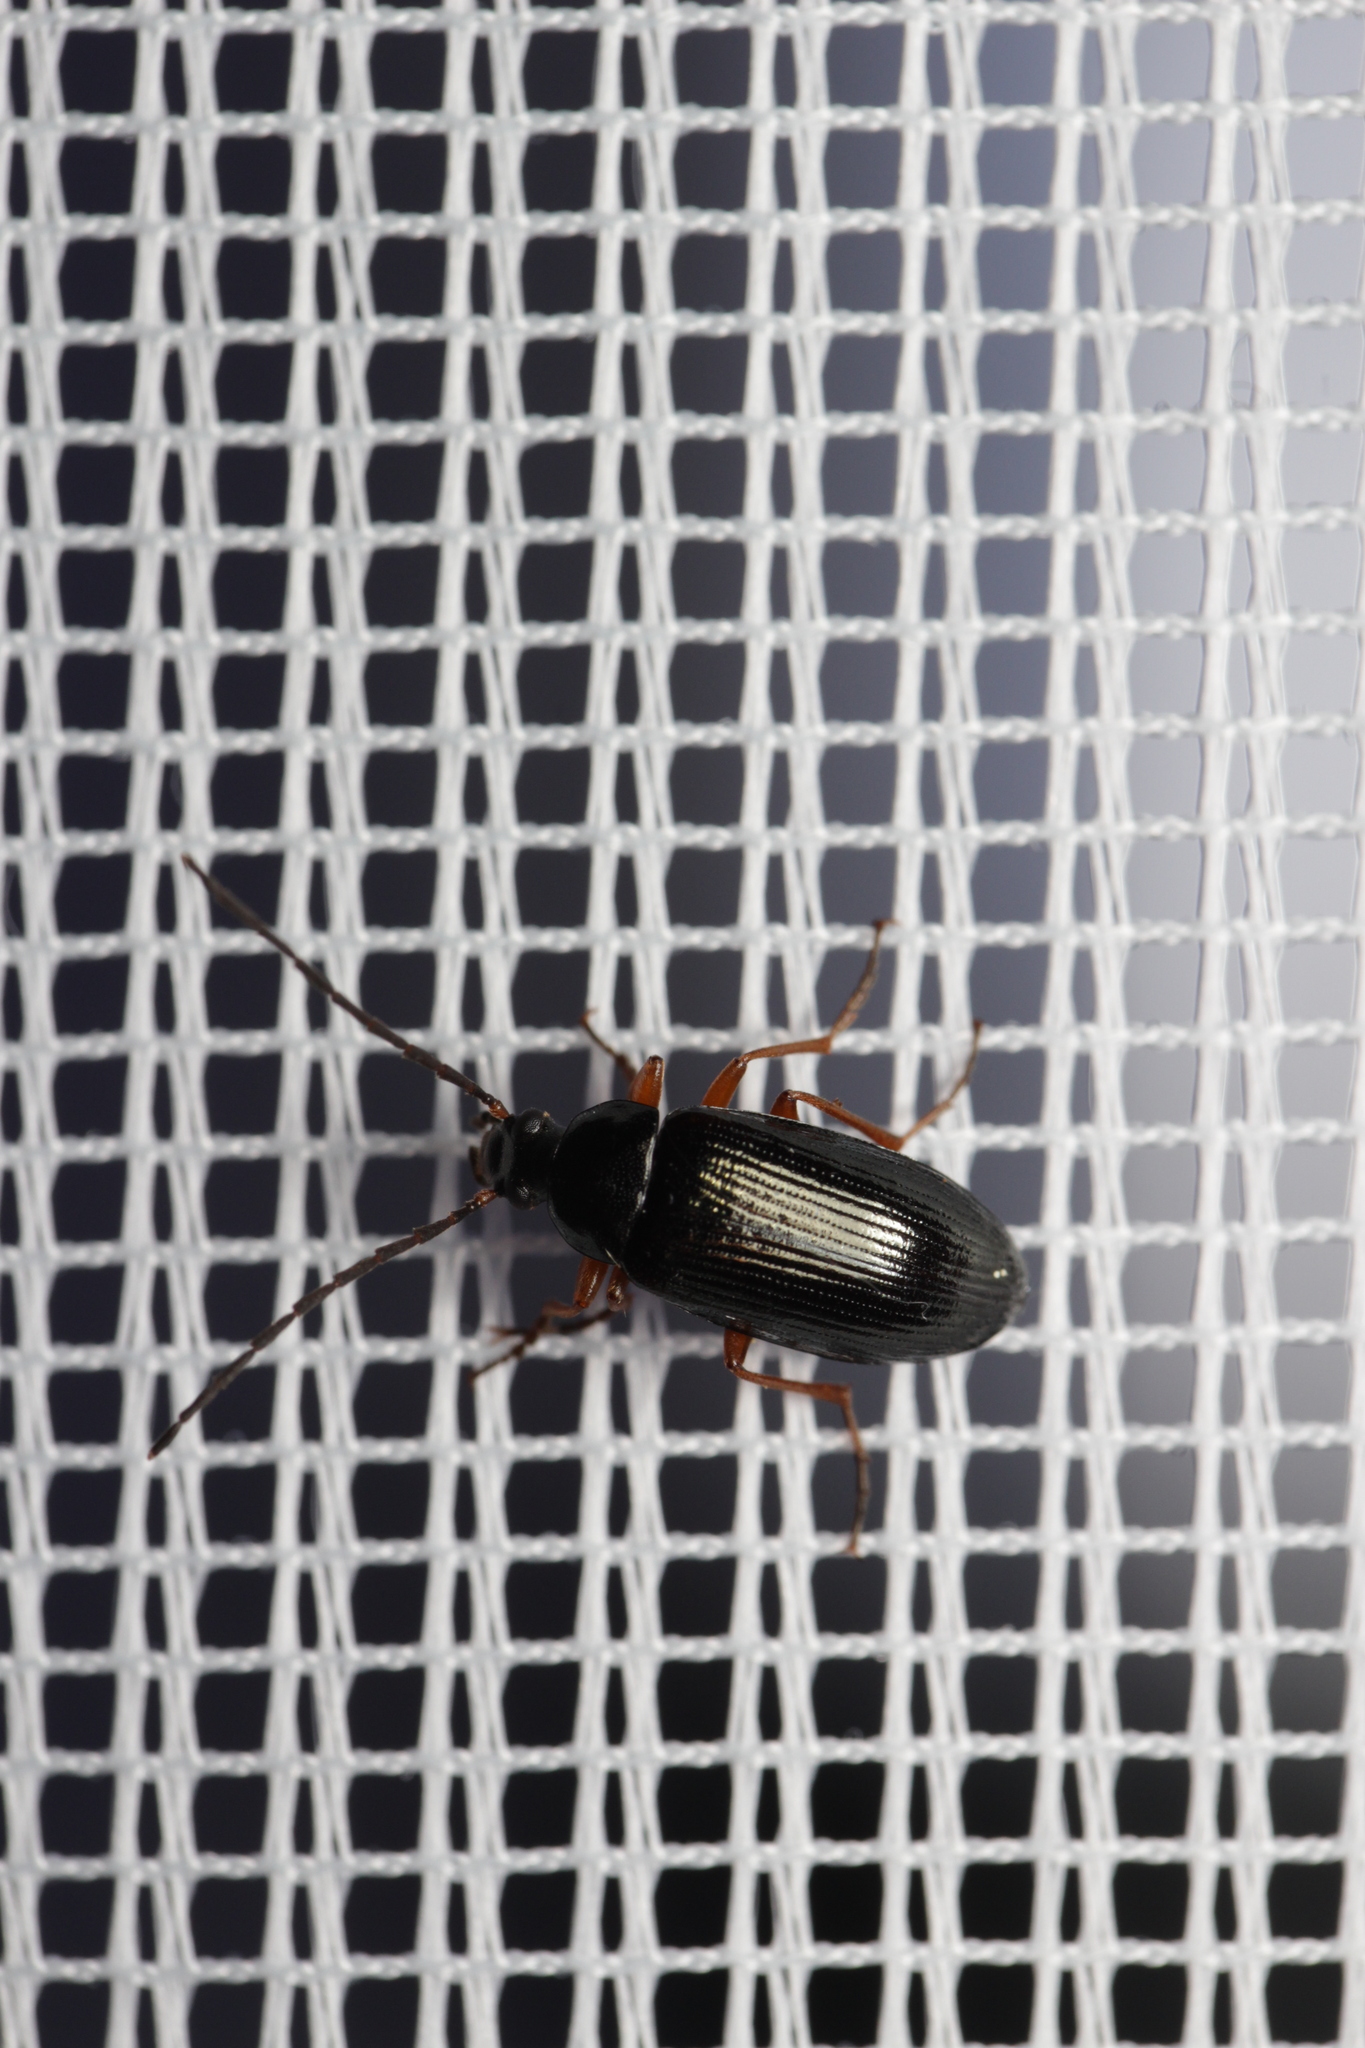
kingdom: Animalia
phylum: Arthropoda
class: Insecta
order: Coleoptera
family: Tenebrionidae
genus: Gonodera
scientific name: Gonodera luperus
